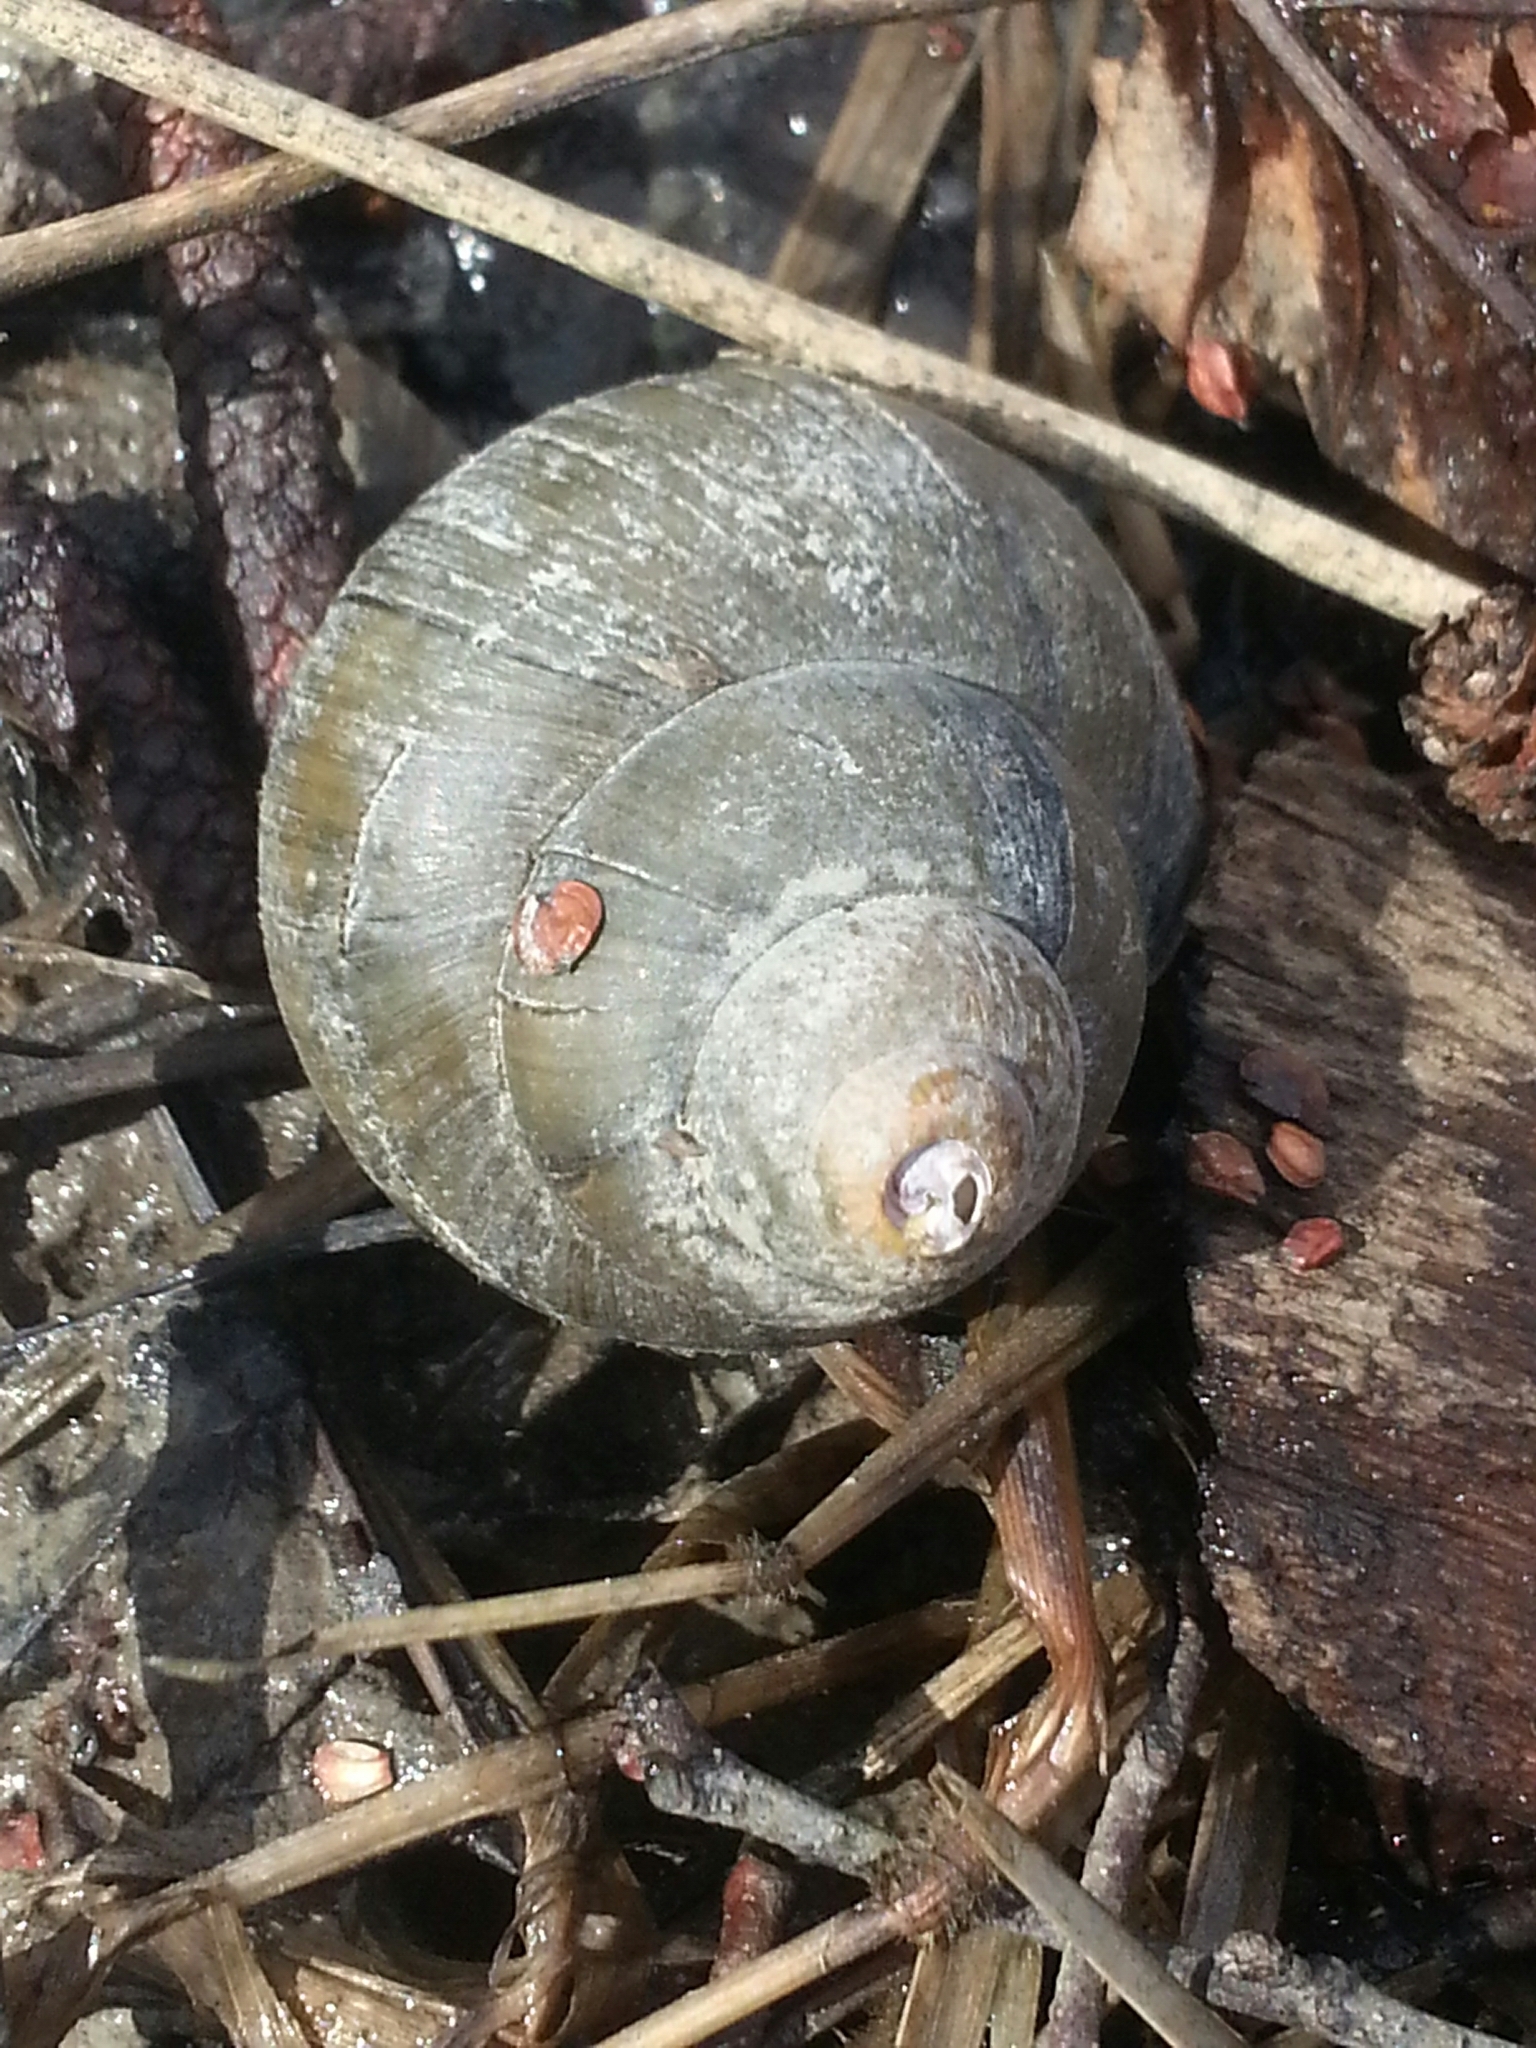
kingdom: Animalia
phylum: Mollusca
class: Gastropoda
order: Architaenioglossa
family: Viviparidae
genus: Cipangopaludina
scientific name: Cipangopaludina chinensis
